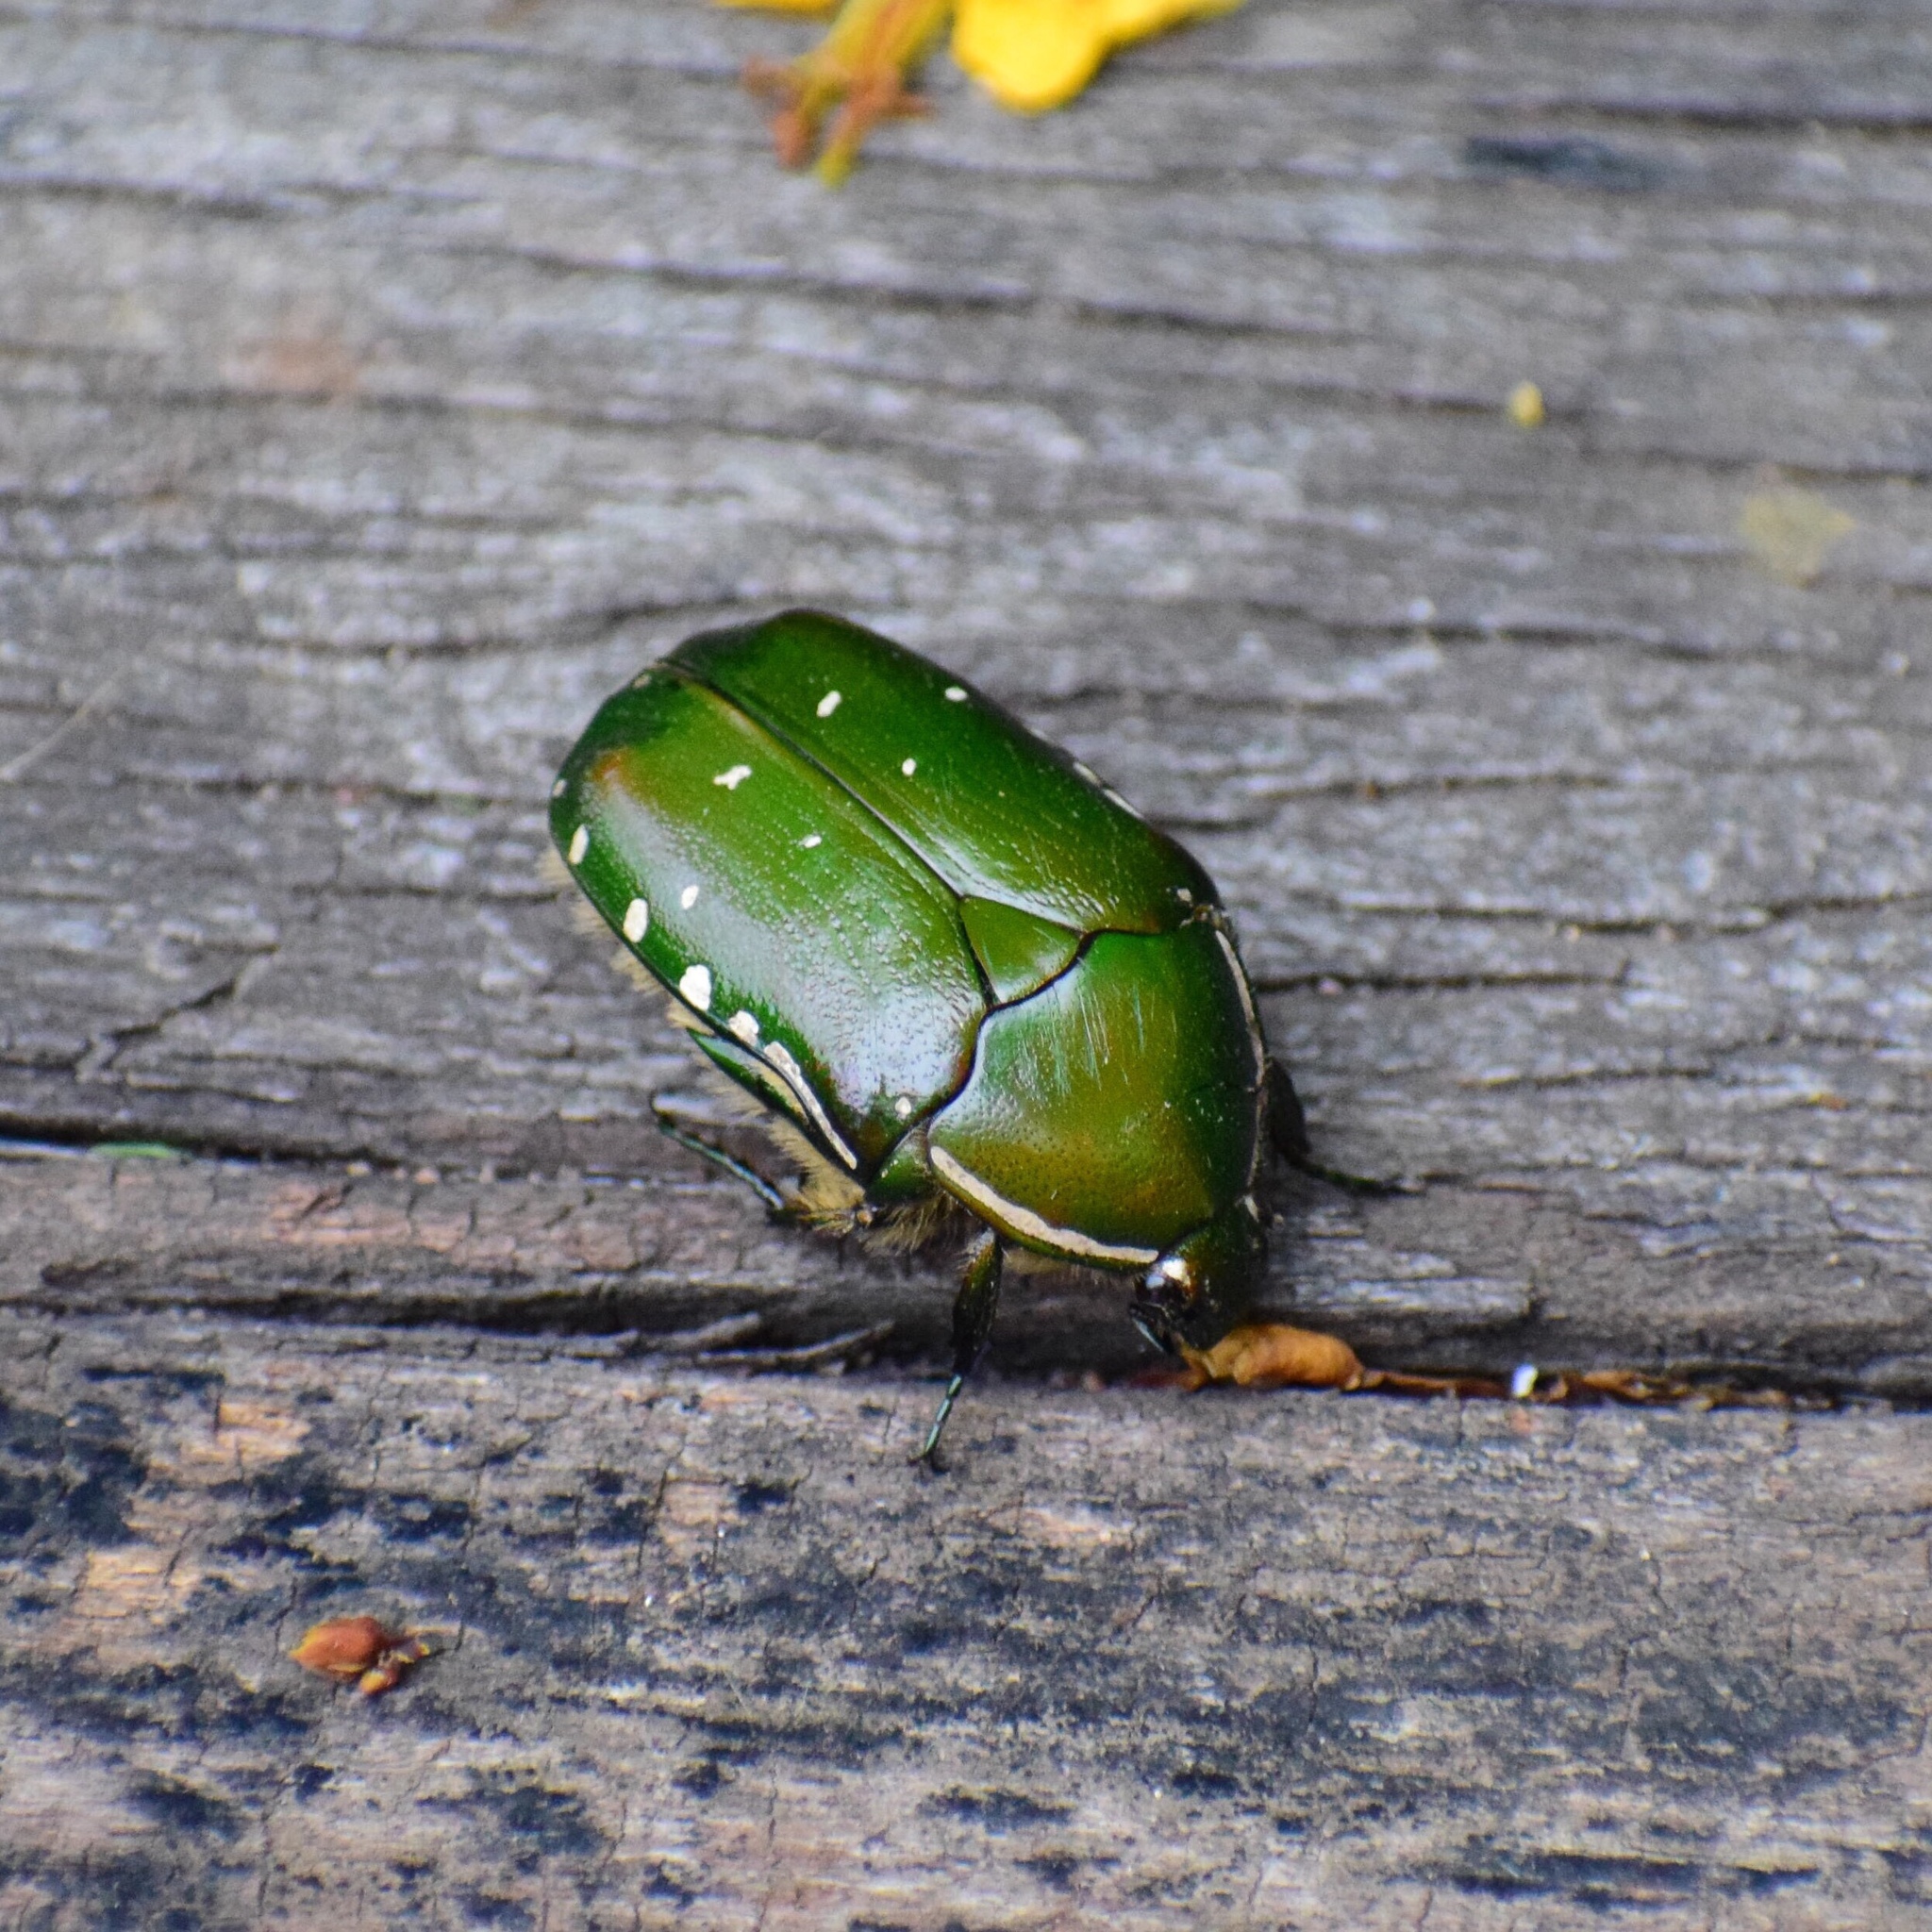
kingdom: Animalia
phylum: Arthropoda
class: Insecta
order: Coleoptera
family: Scarabaeidae
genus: Rhabdotis
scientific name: Rhabdotis aulica
